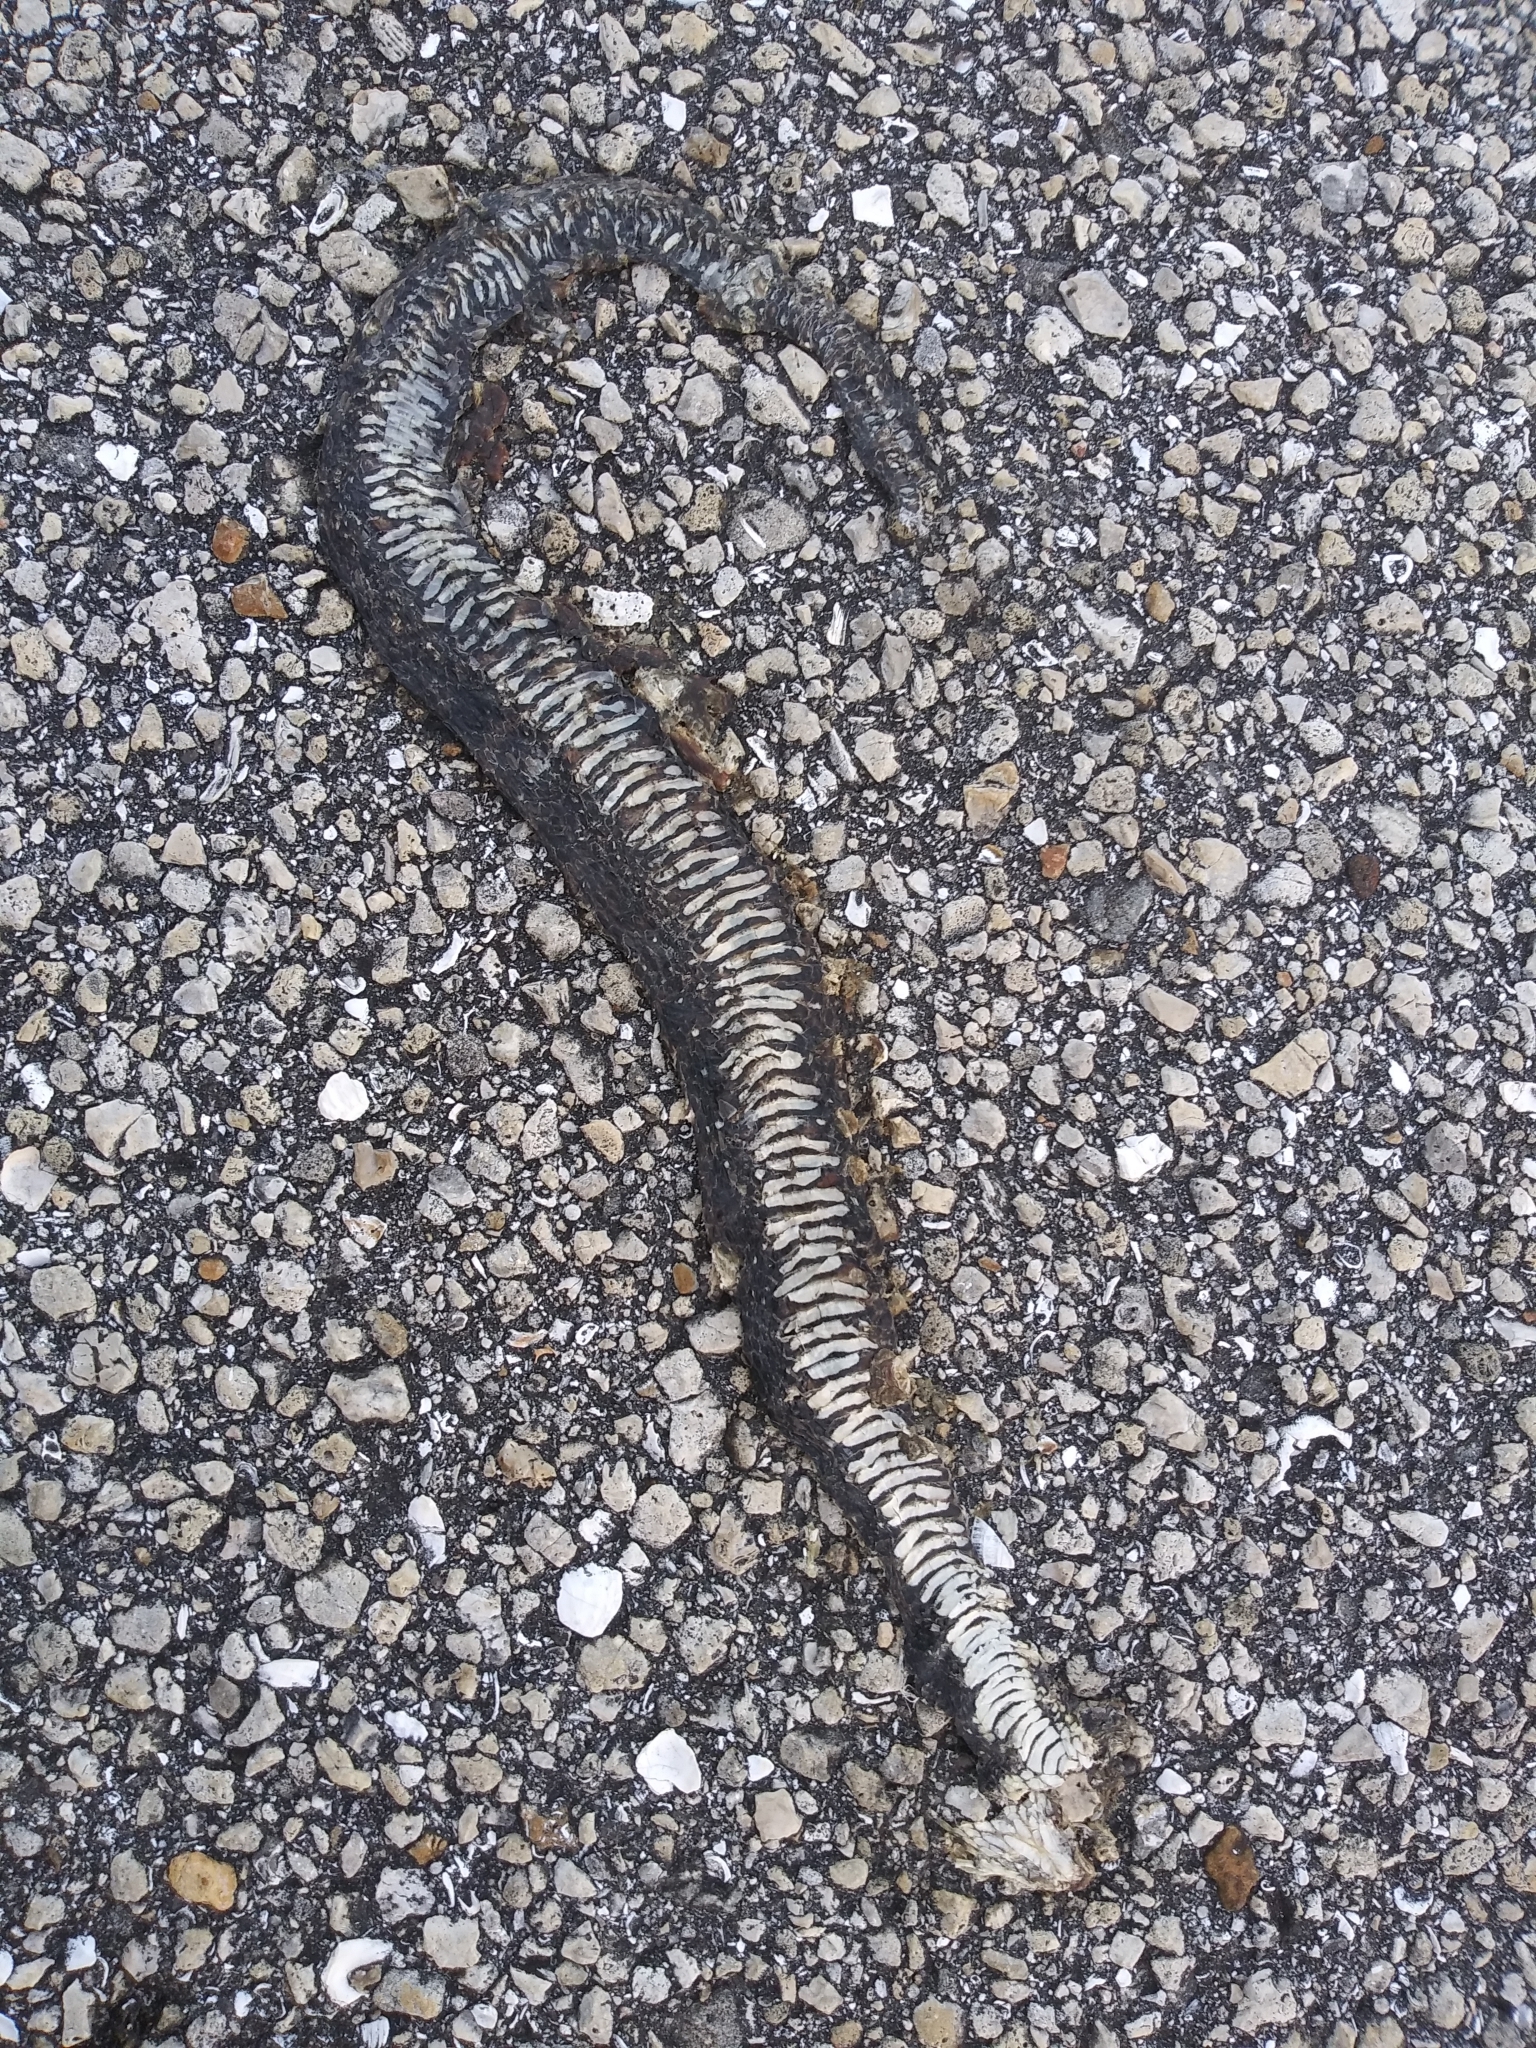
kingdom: Animalia
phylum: Chordata
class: Squamata
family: Colubridae
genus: Nerodia
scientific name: Nerodia fasciata
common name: Southern water snake
